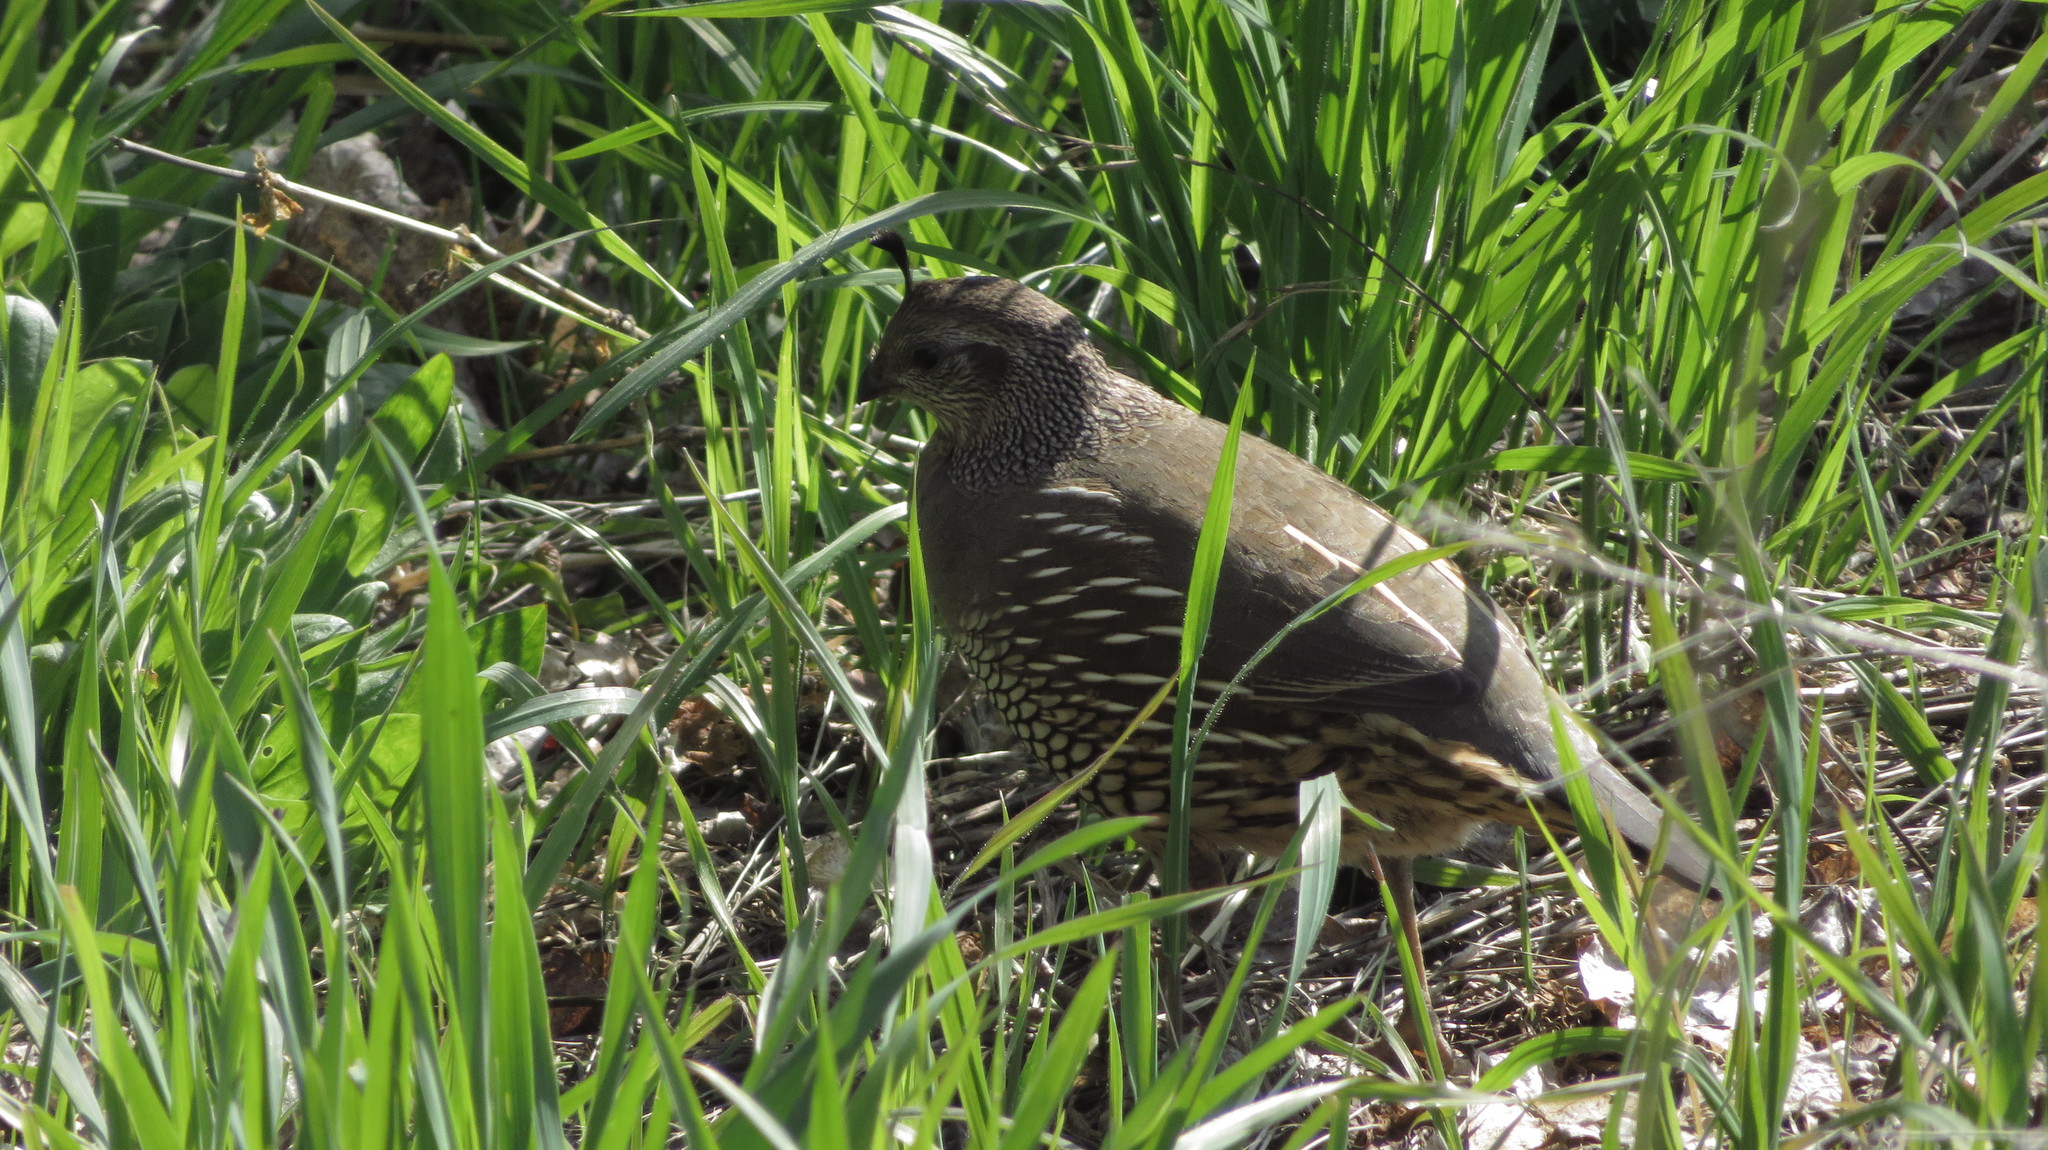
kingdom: Animalia
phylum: Chordata
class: Aves
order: Galliformes
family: Odontophoridae
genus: Callipepla
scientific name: Callipepla californica
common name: California quail
